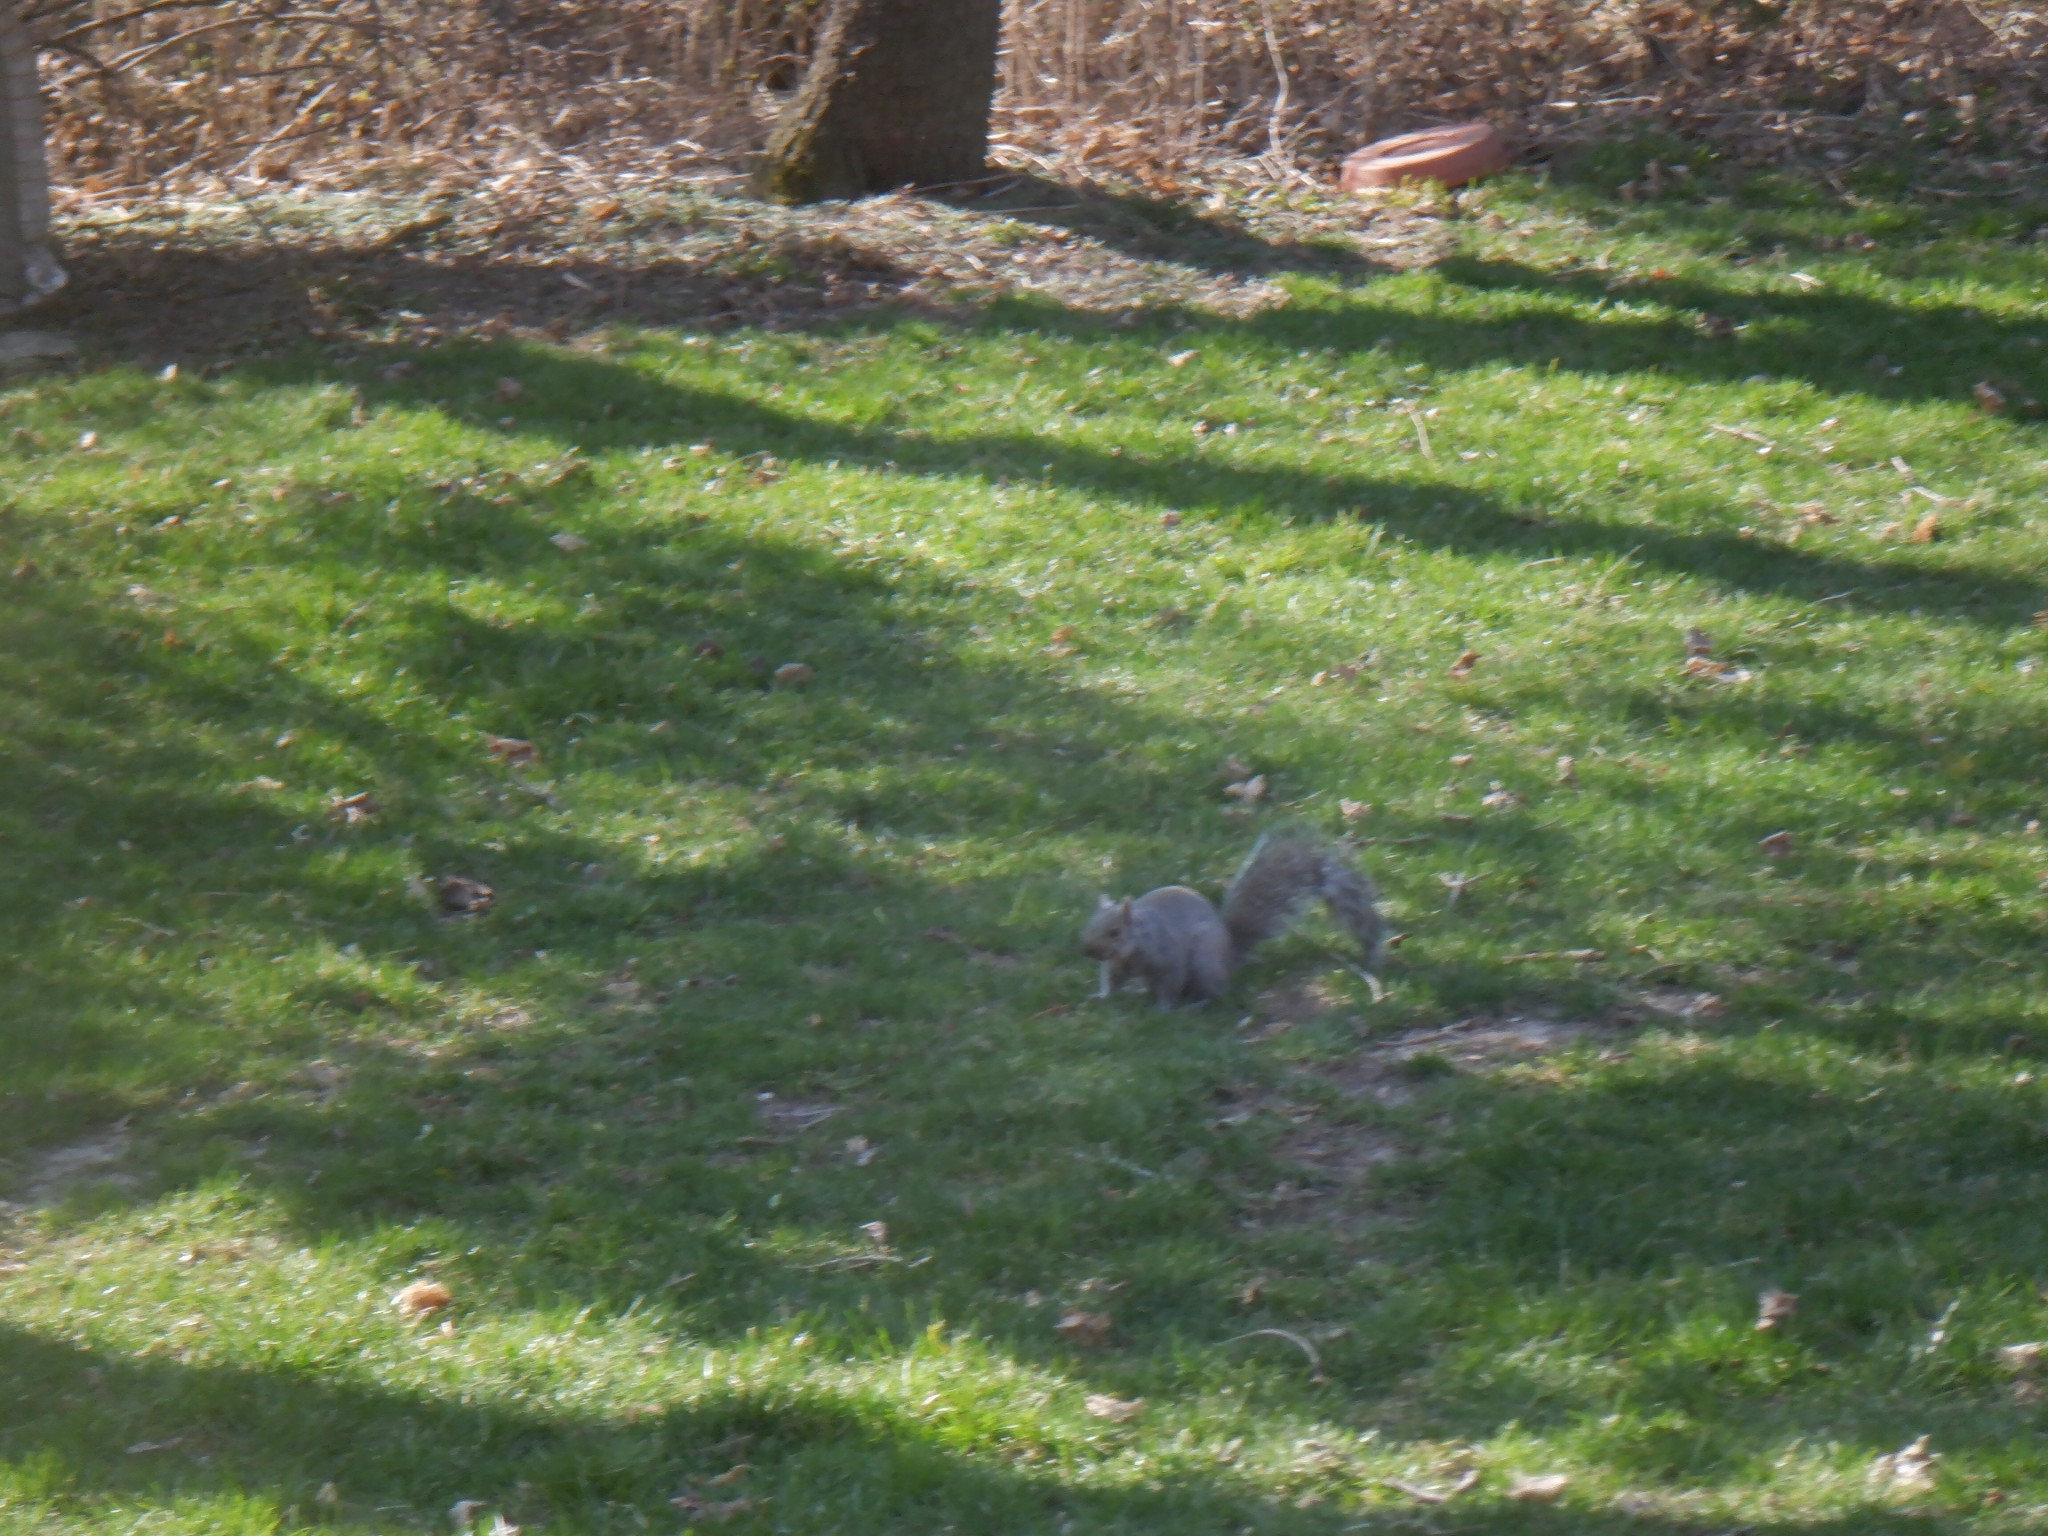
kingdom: Animalia
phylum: Chordata
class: Mammalia
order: Rodentia
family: Sciuridae
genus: Sciurus
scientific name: Sciurus carolinensis
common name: Eastern gray squirrel
